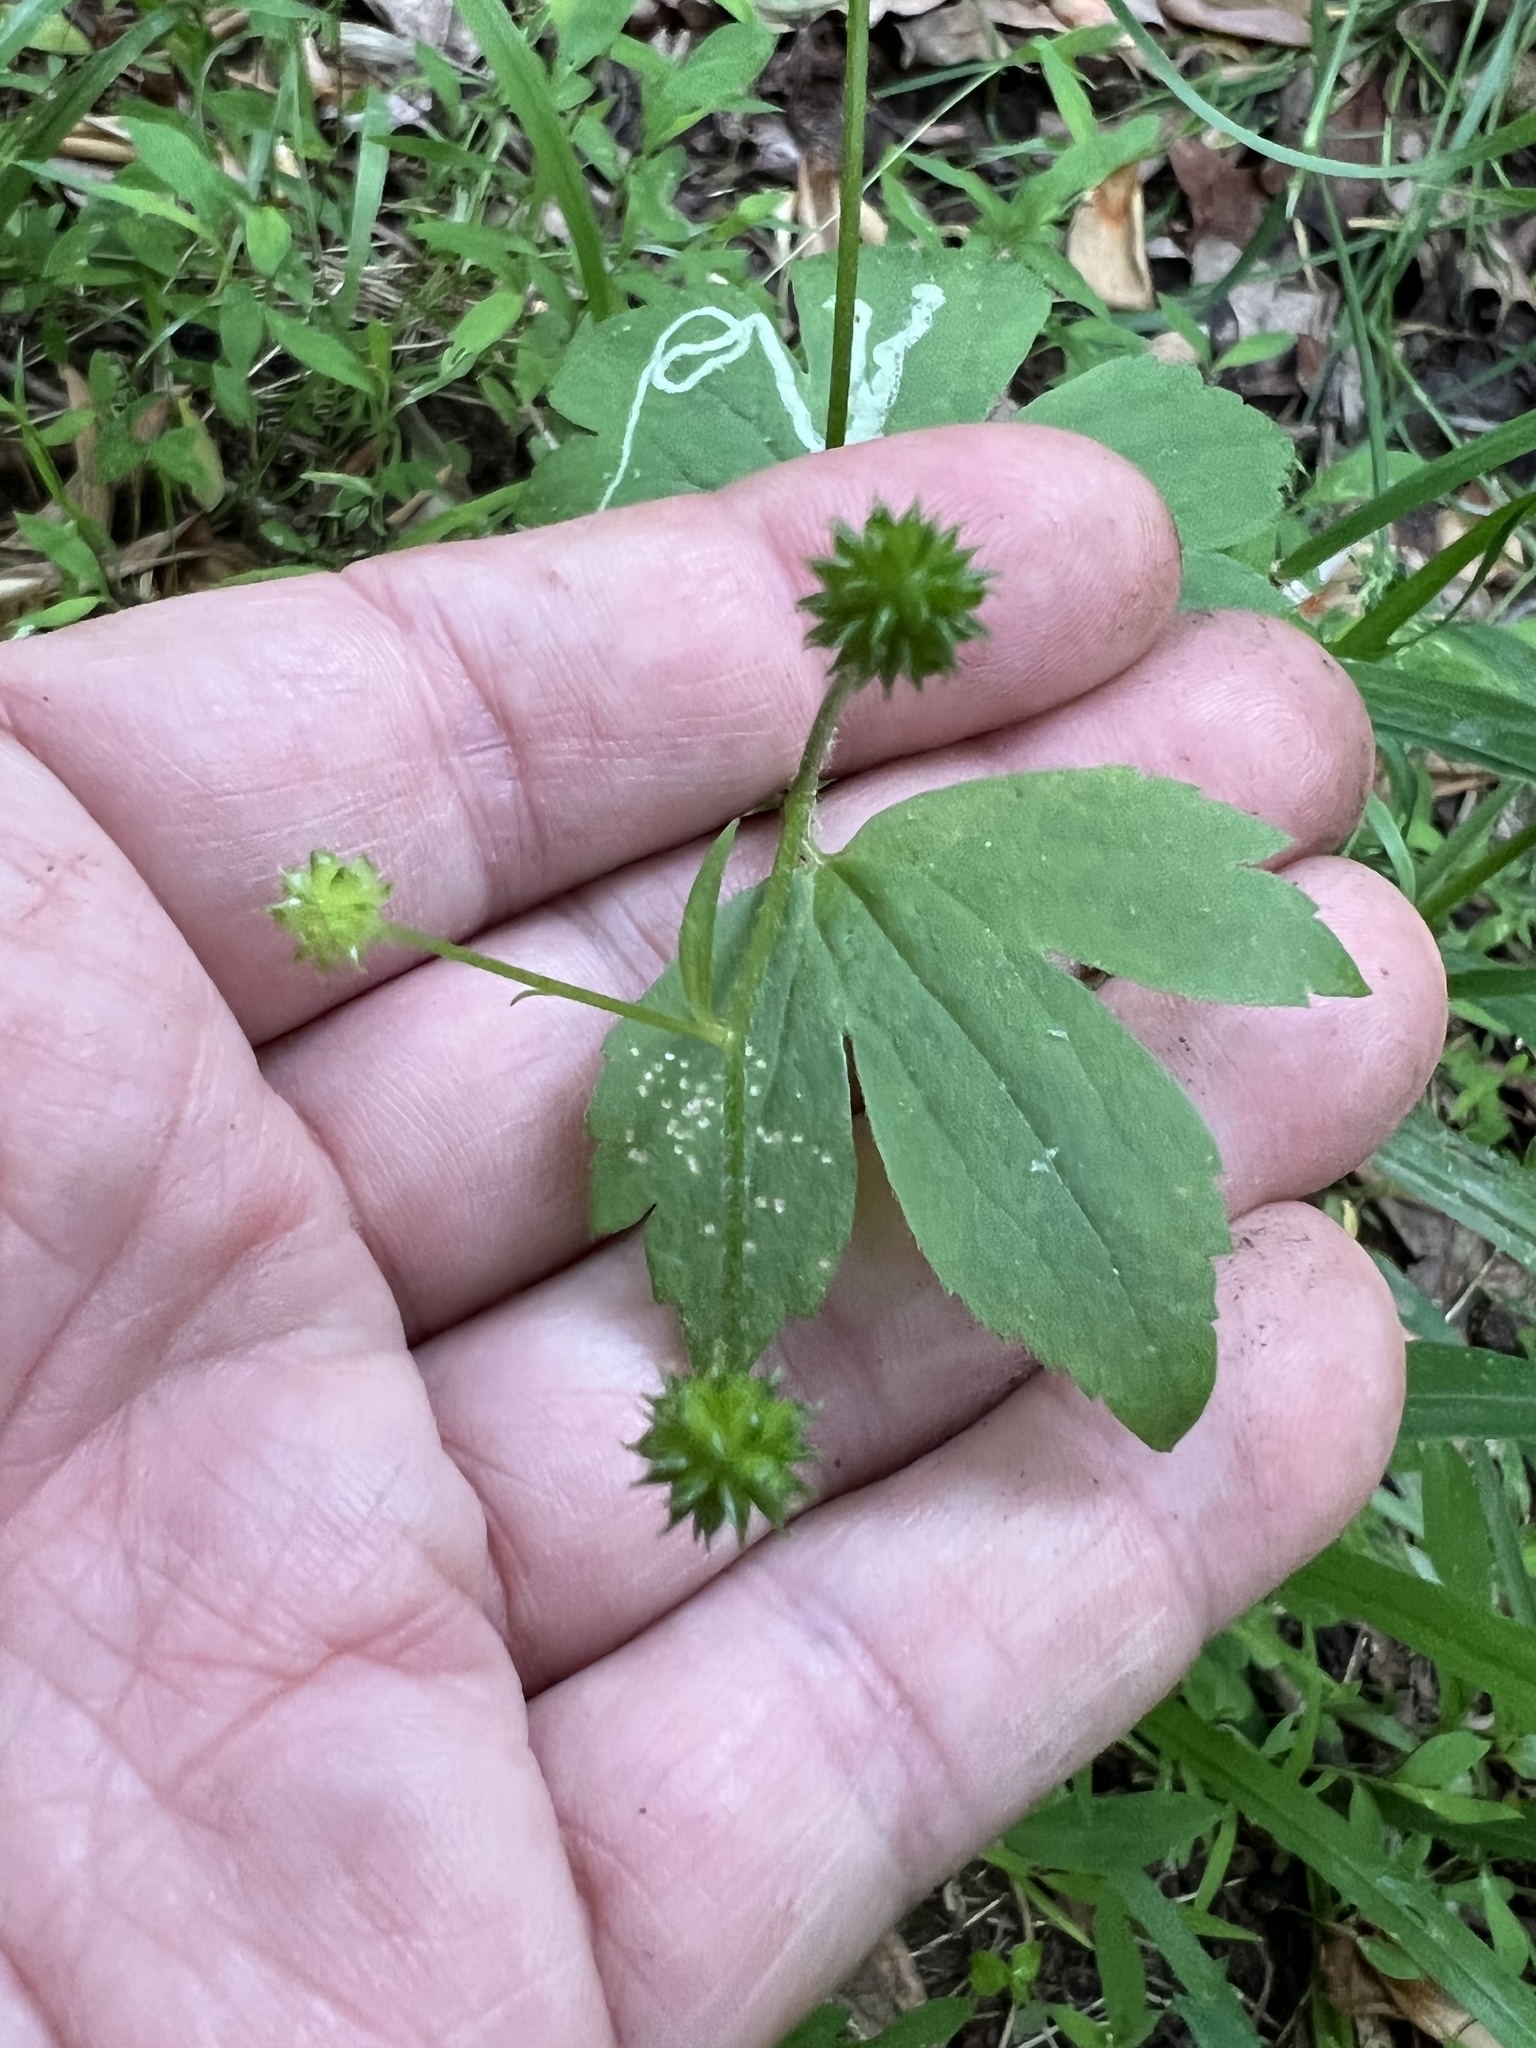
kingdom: Animalia
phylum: Arthropoda
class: Insecta
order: Diptera
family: Agromyzidae
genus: Phytomyza
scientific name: Phytomyza loewii
